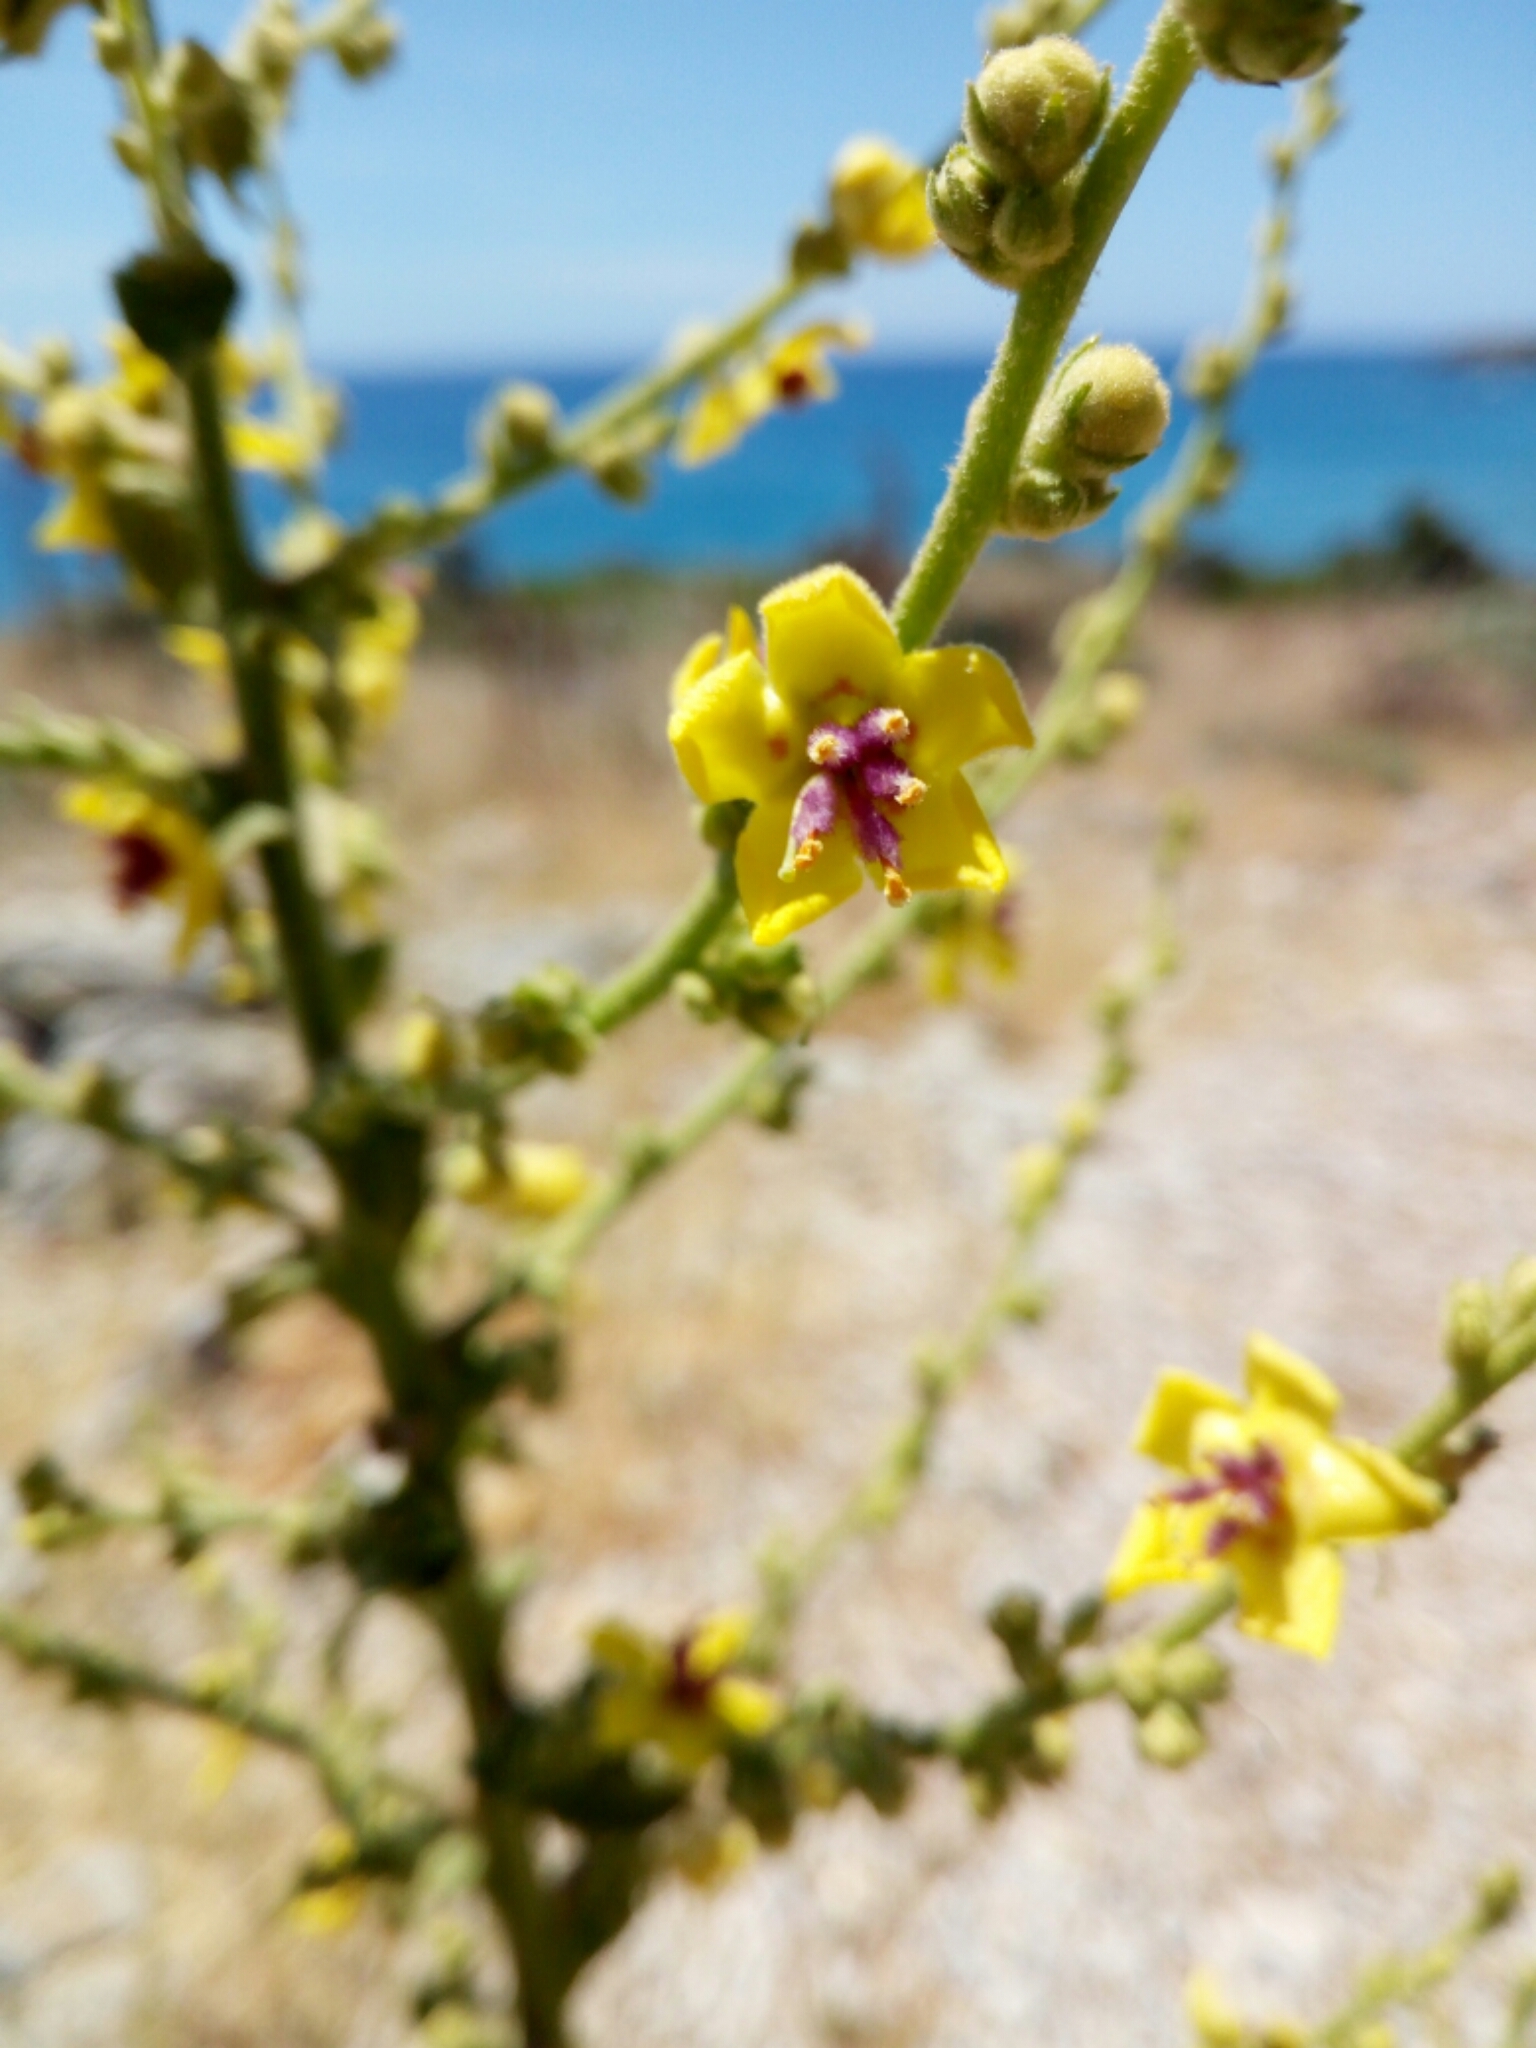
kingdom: Plantae
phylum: Tracheophyta
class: Magnoliopsida
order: Lamiales
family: Scrophulariaceae
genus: Verbascum
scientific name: Verbascum sinuatum
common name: Wavyleaf mullein
